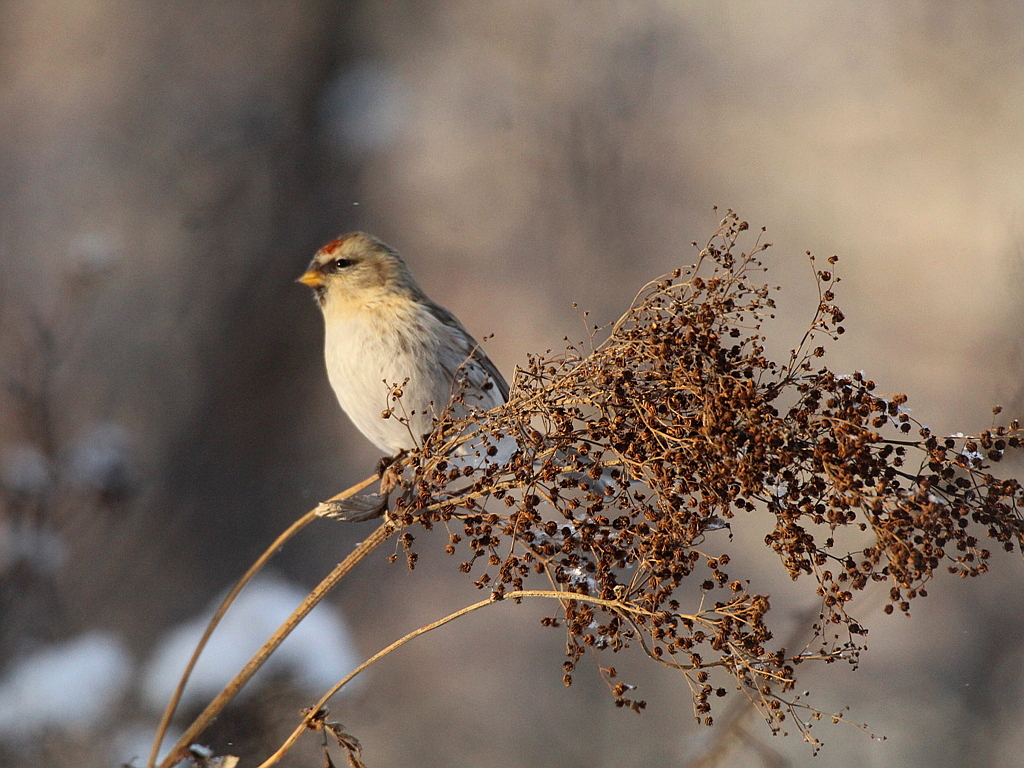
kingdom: Animalia
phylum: Chordata
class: Aves
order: Passeriformes
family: Fringillidae
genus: Acanthis
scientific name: Acanthis flammea
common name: Common redpoll
